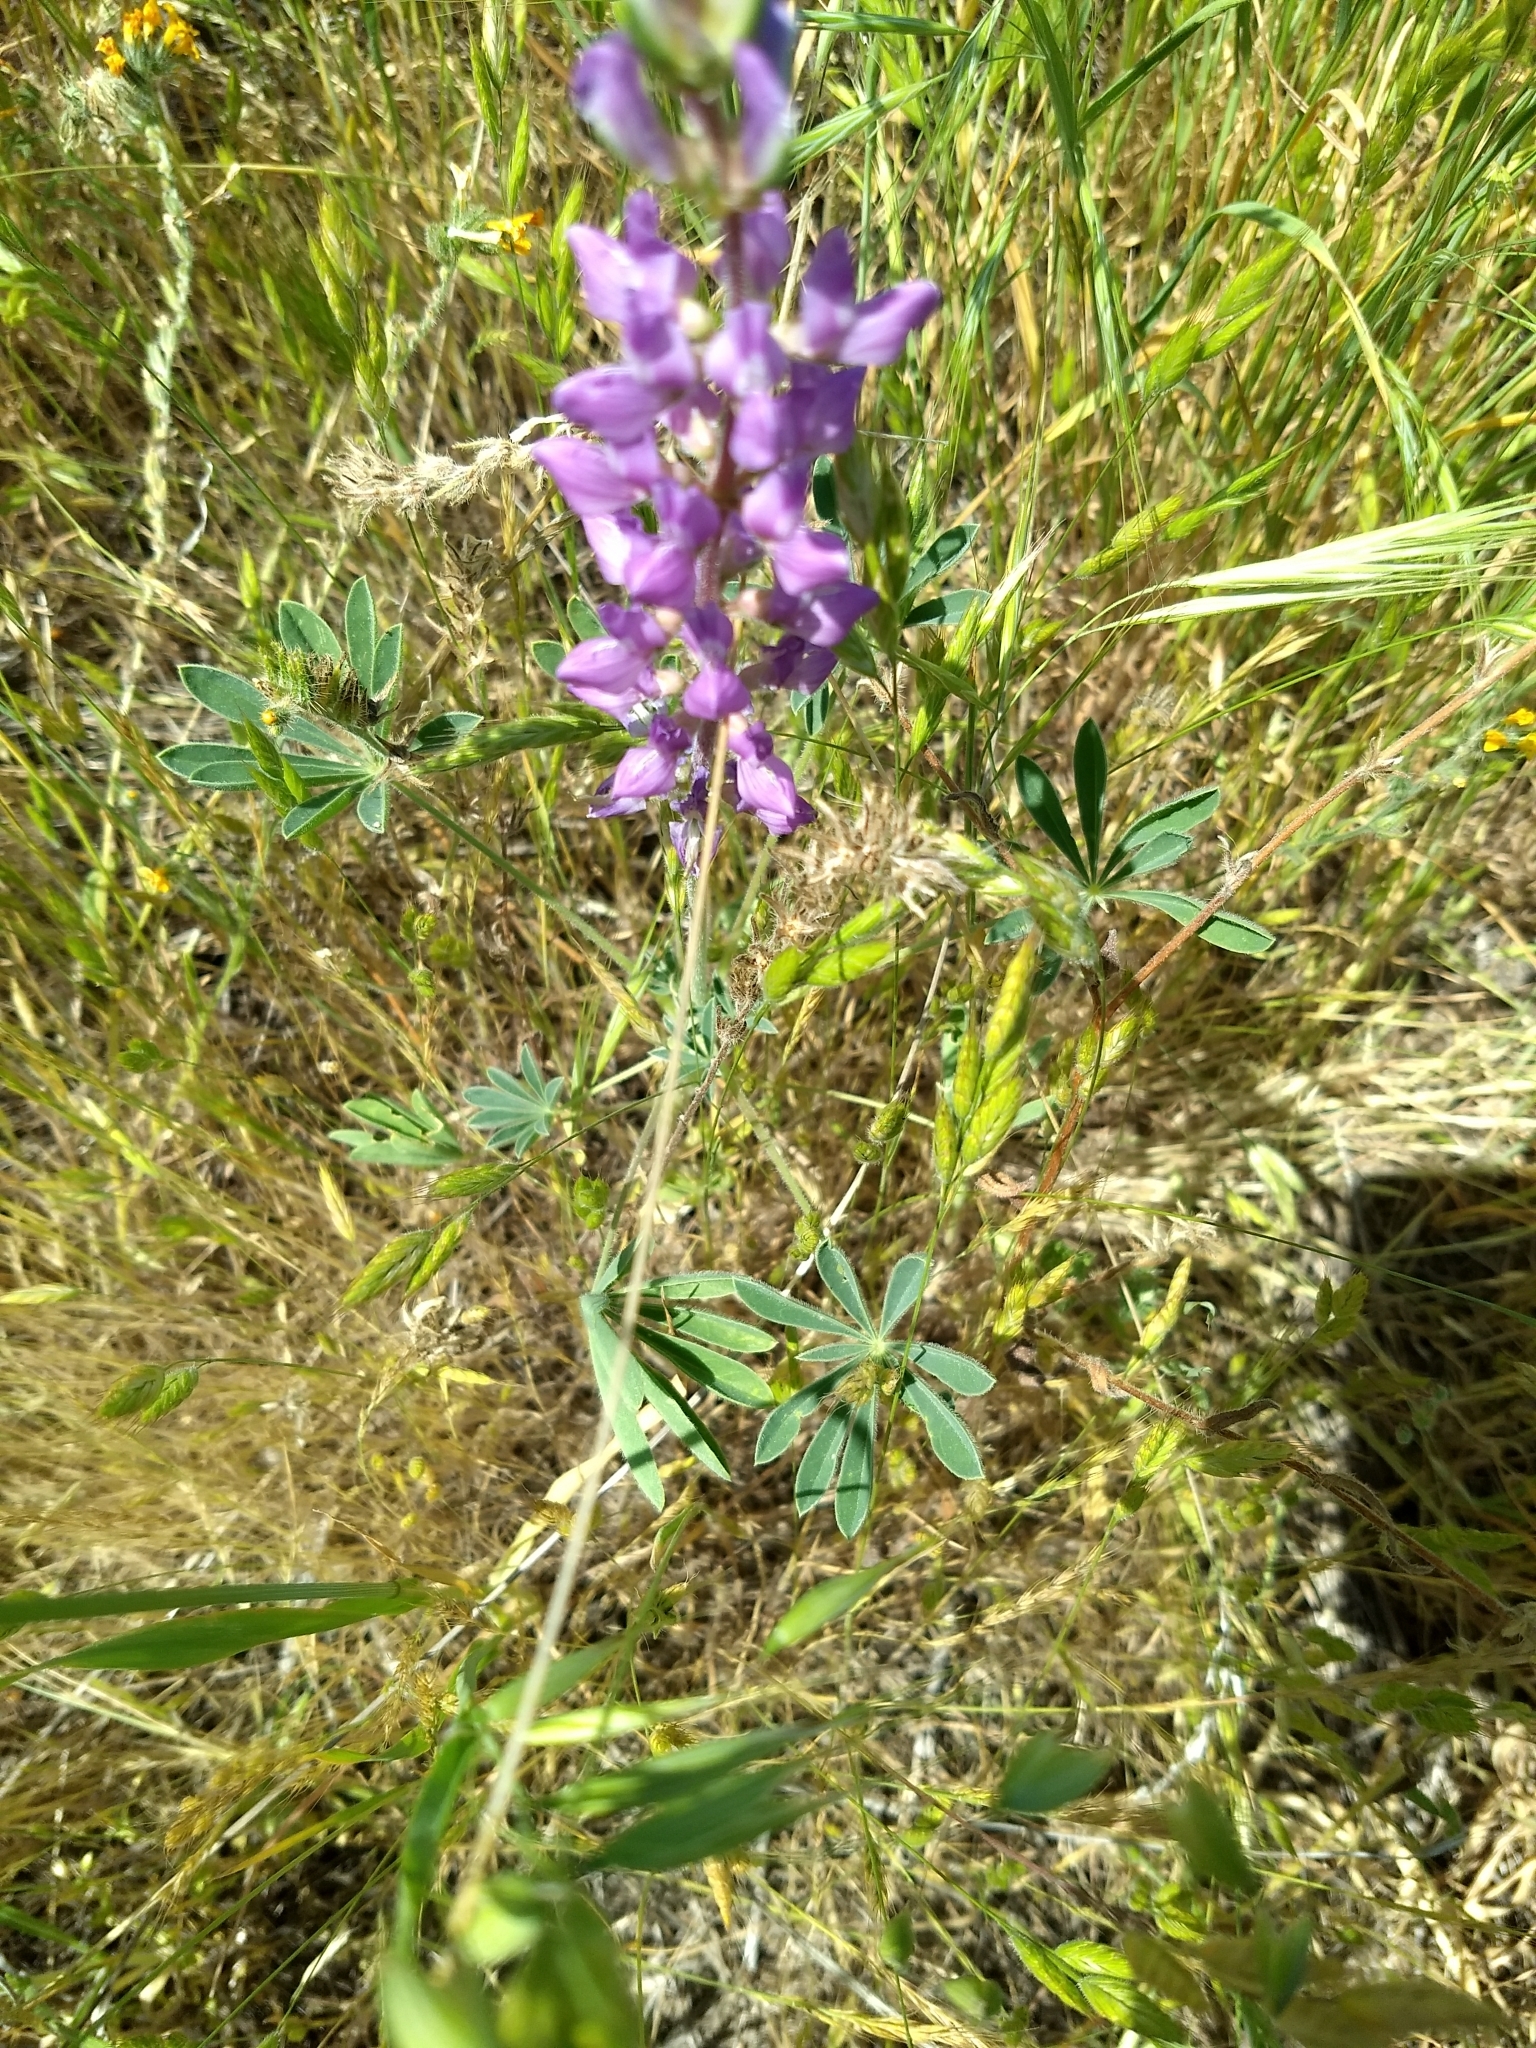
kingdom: Plantae
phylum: Tracheophyta
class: Magnoliopsida
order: Fabales
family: Fabaceae
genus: Lupinus
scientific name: Lupinus microcarpus
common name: Chick lupine
